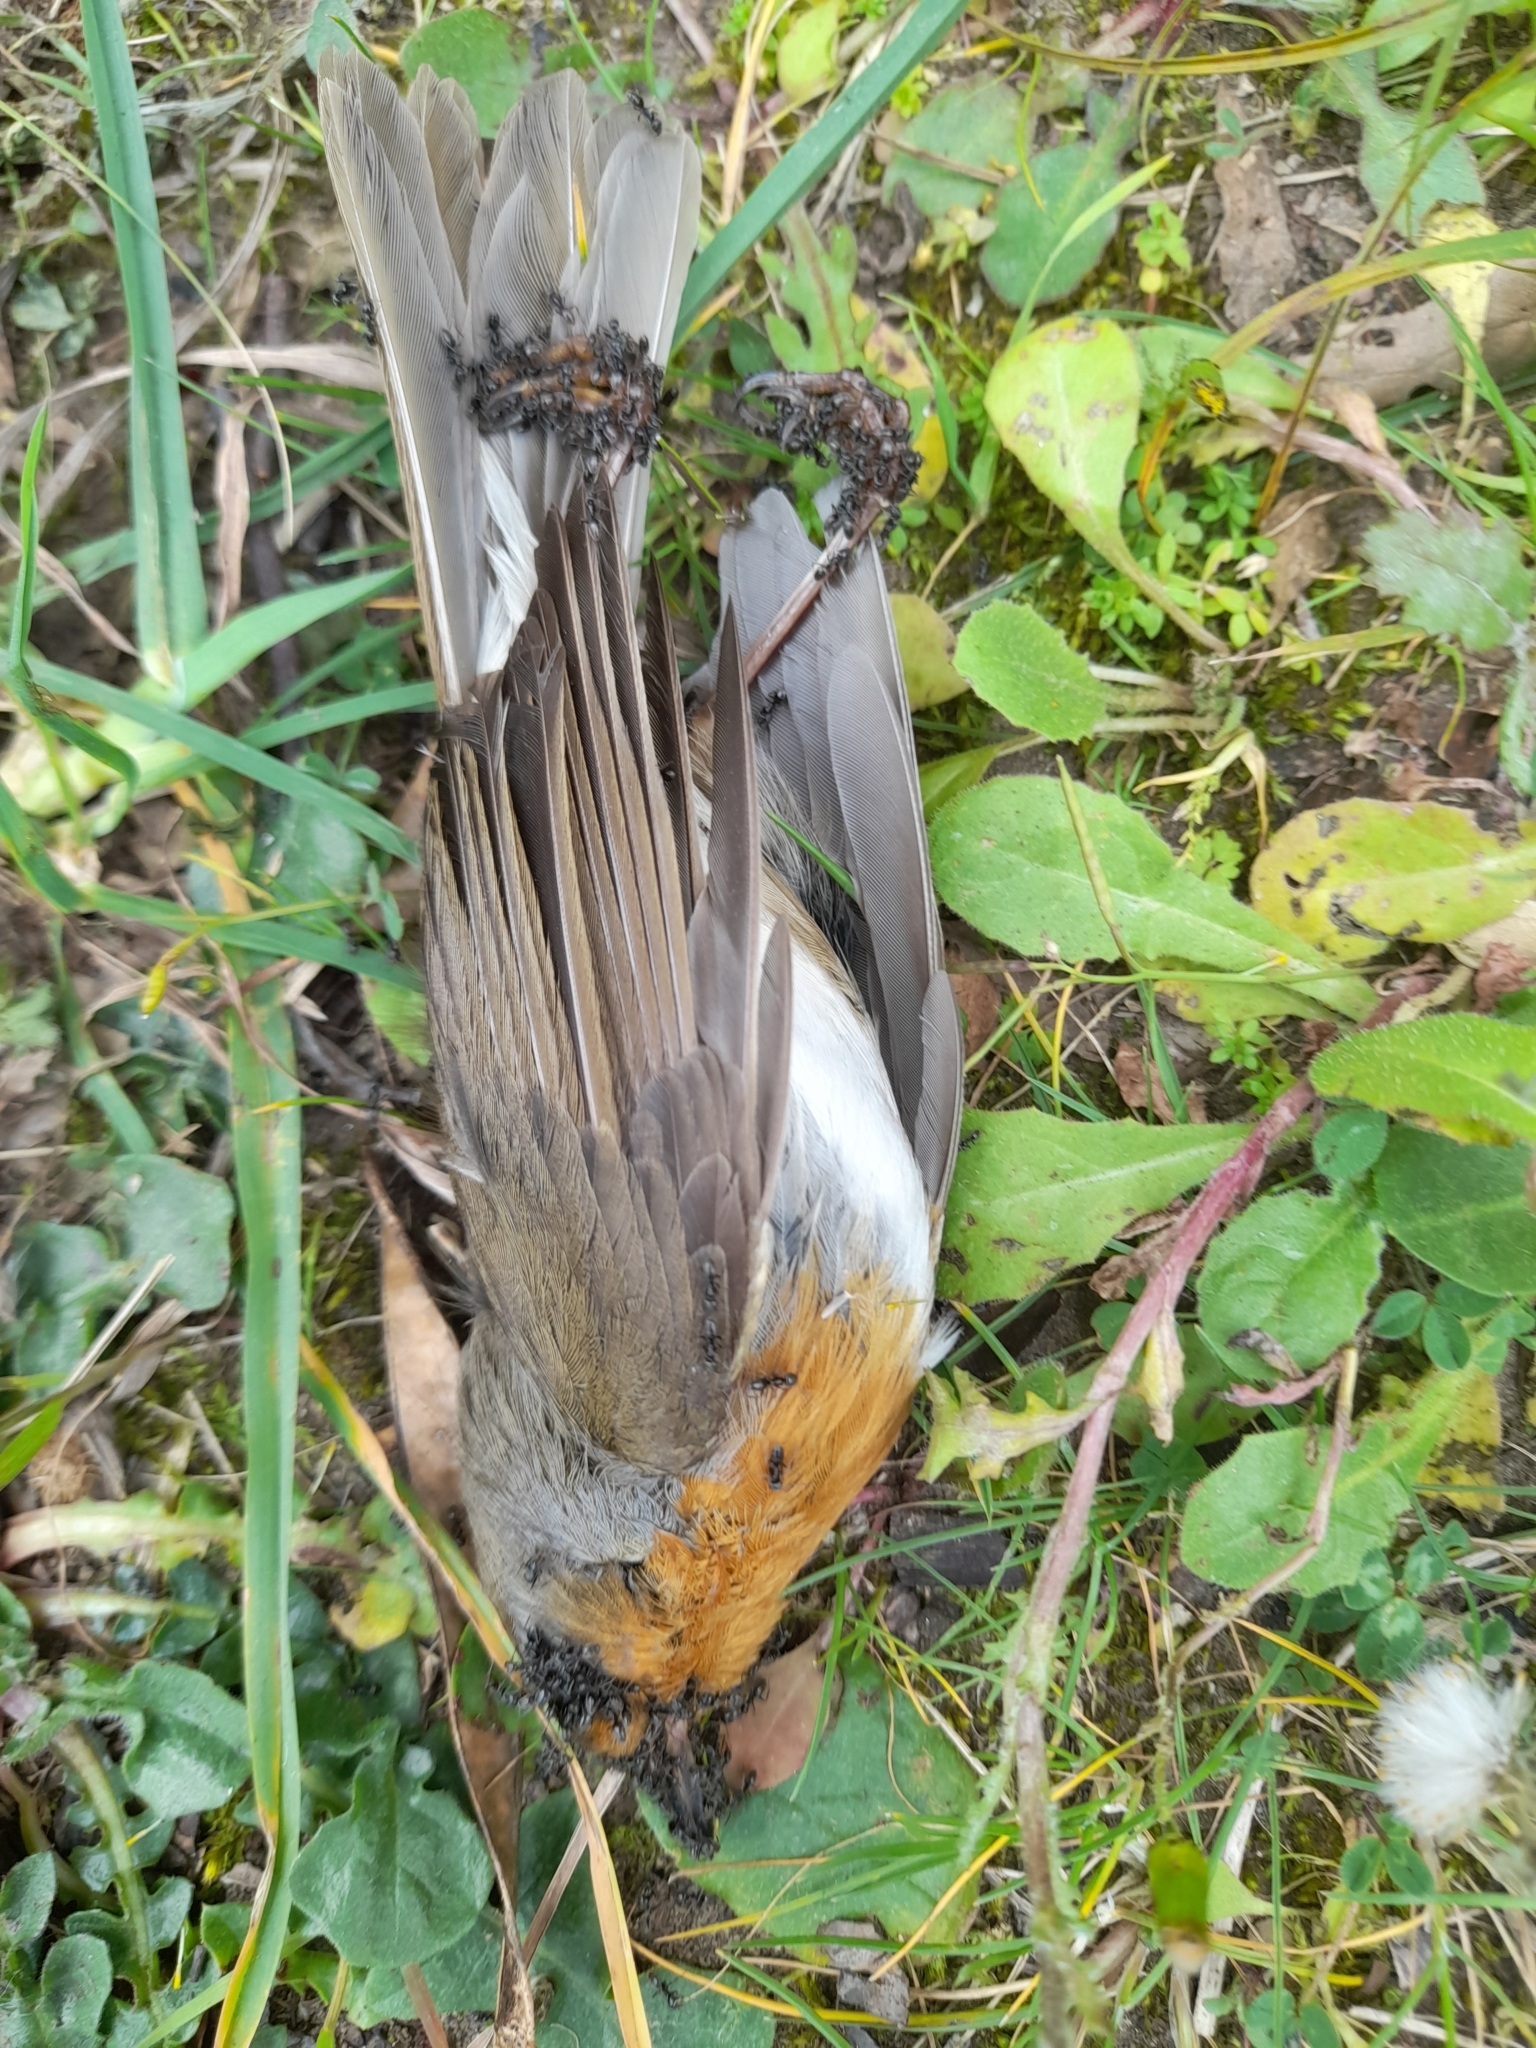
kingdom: Animalia
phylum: Chordata
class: Aves
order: Passeriformes
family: Muscicapidae
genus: Erithacus
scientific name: Erithacus rubecula
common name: European robin
